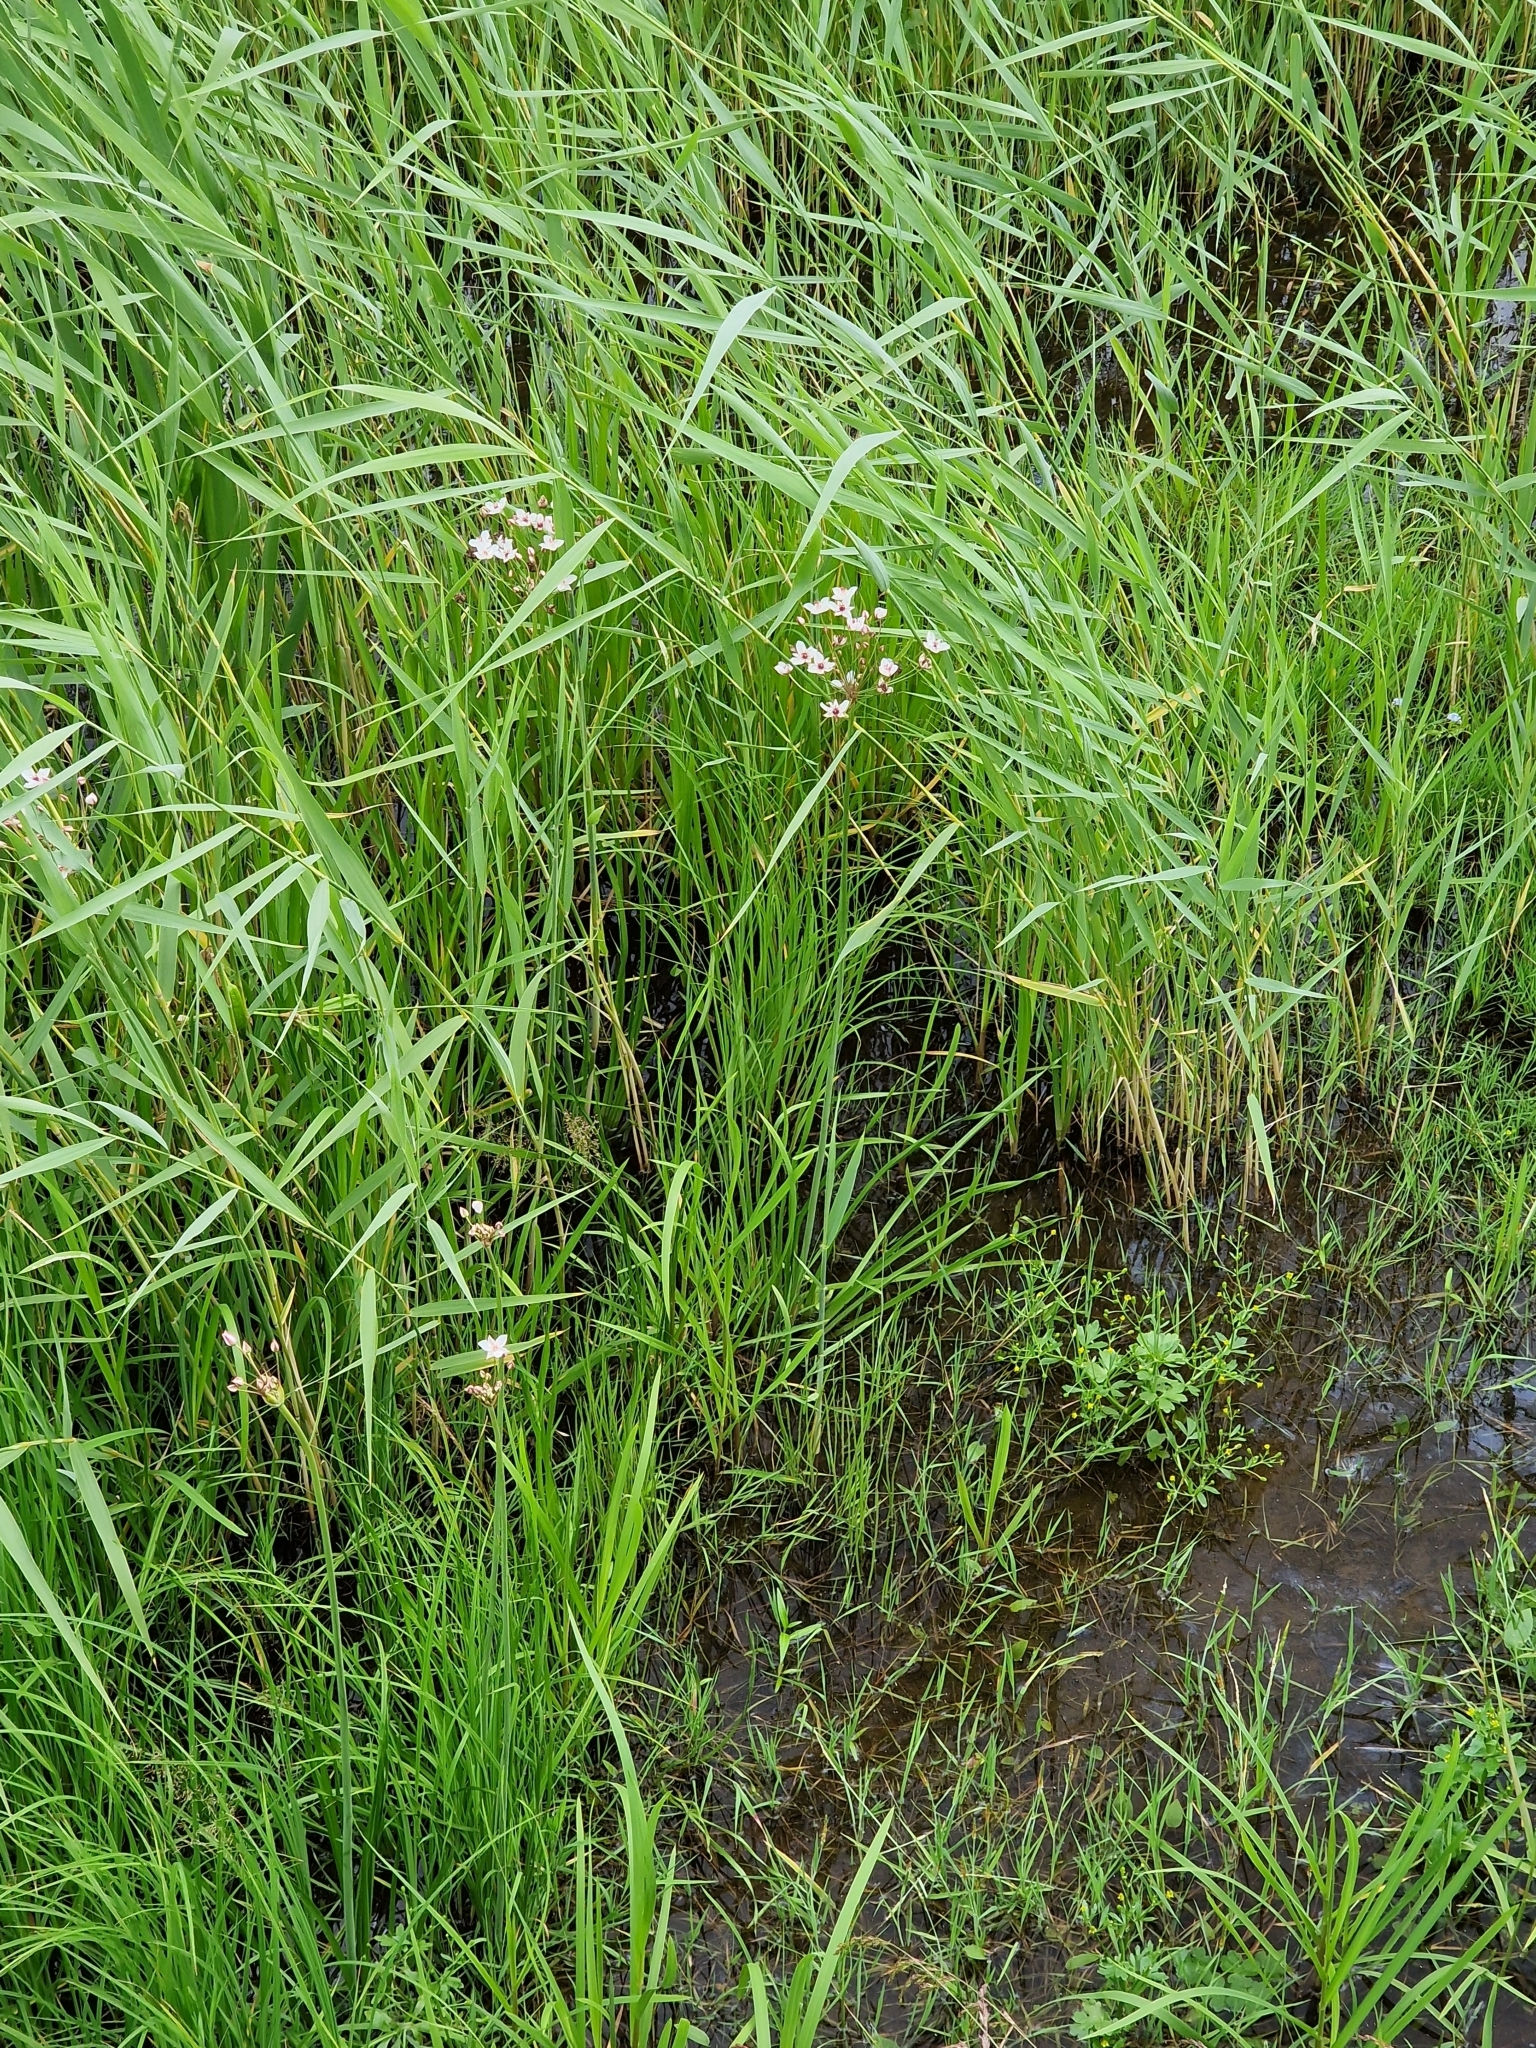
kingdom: Plantae
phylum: Tracheophyta
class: Liliopsida
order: Alismatales
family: Butomaceae
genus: Butomus
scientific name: Butomus umbellatus
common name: Flowering-rush
